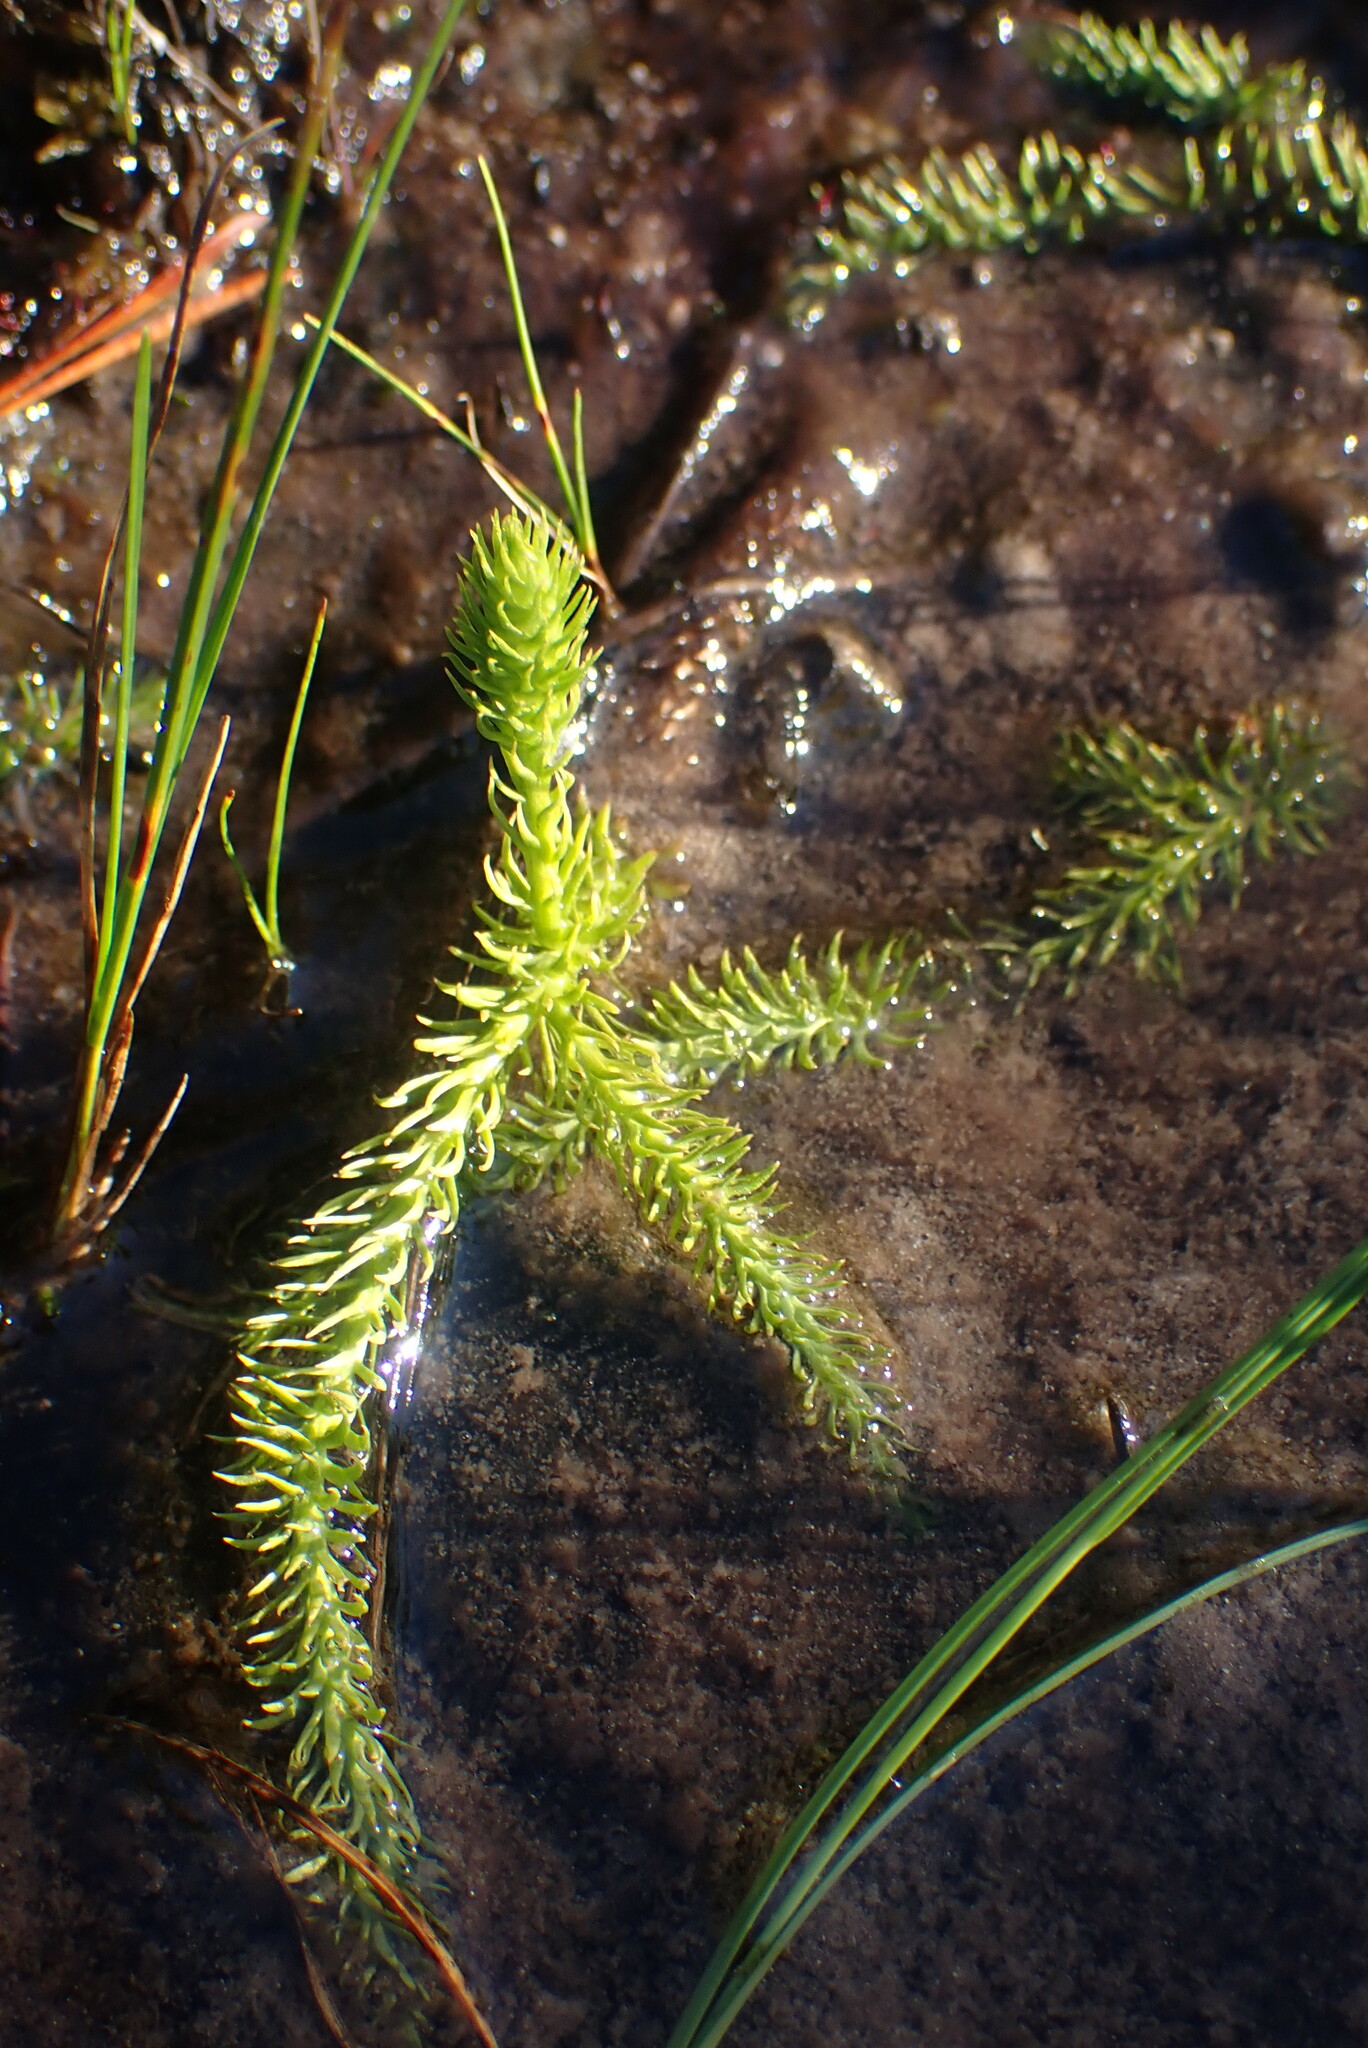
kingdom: Plantae
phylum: Tracheophyta
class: Lycopodiopsida
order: Lycopodiales
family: Lycopodiaceae
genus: Lycopodiella
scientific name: Lycopodiella inundata
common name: Marsh clubmoss
